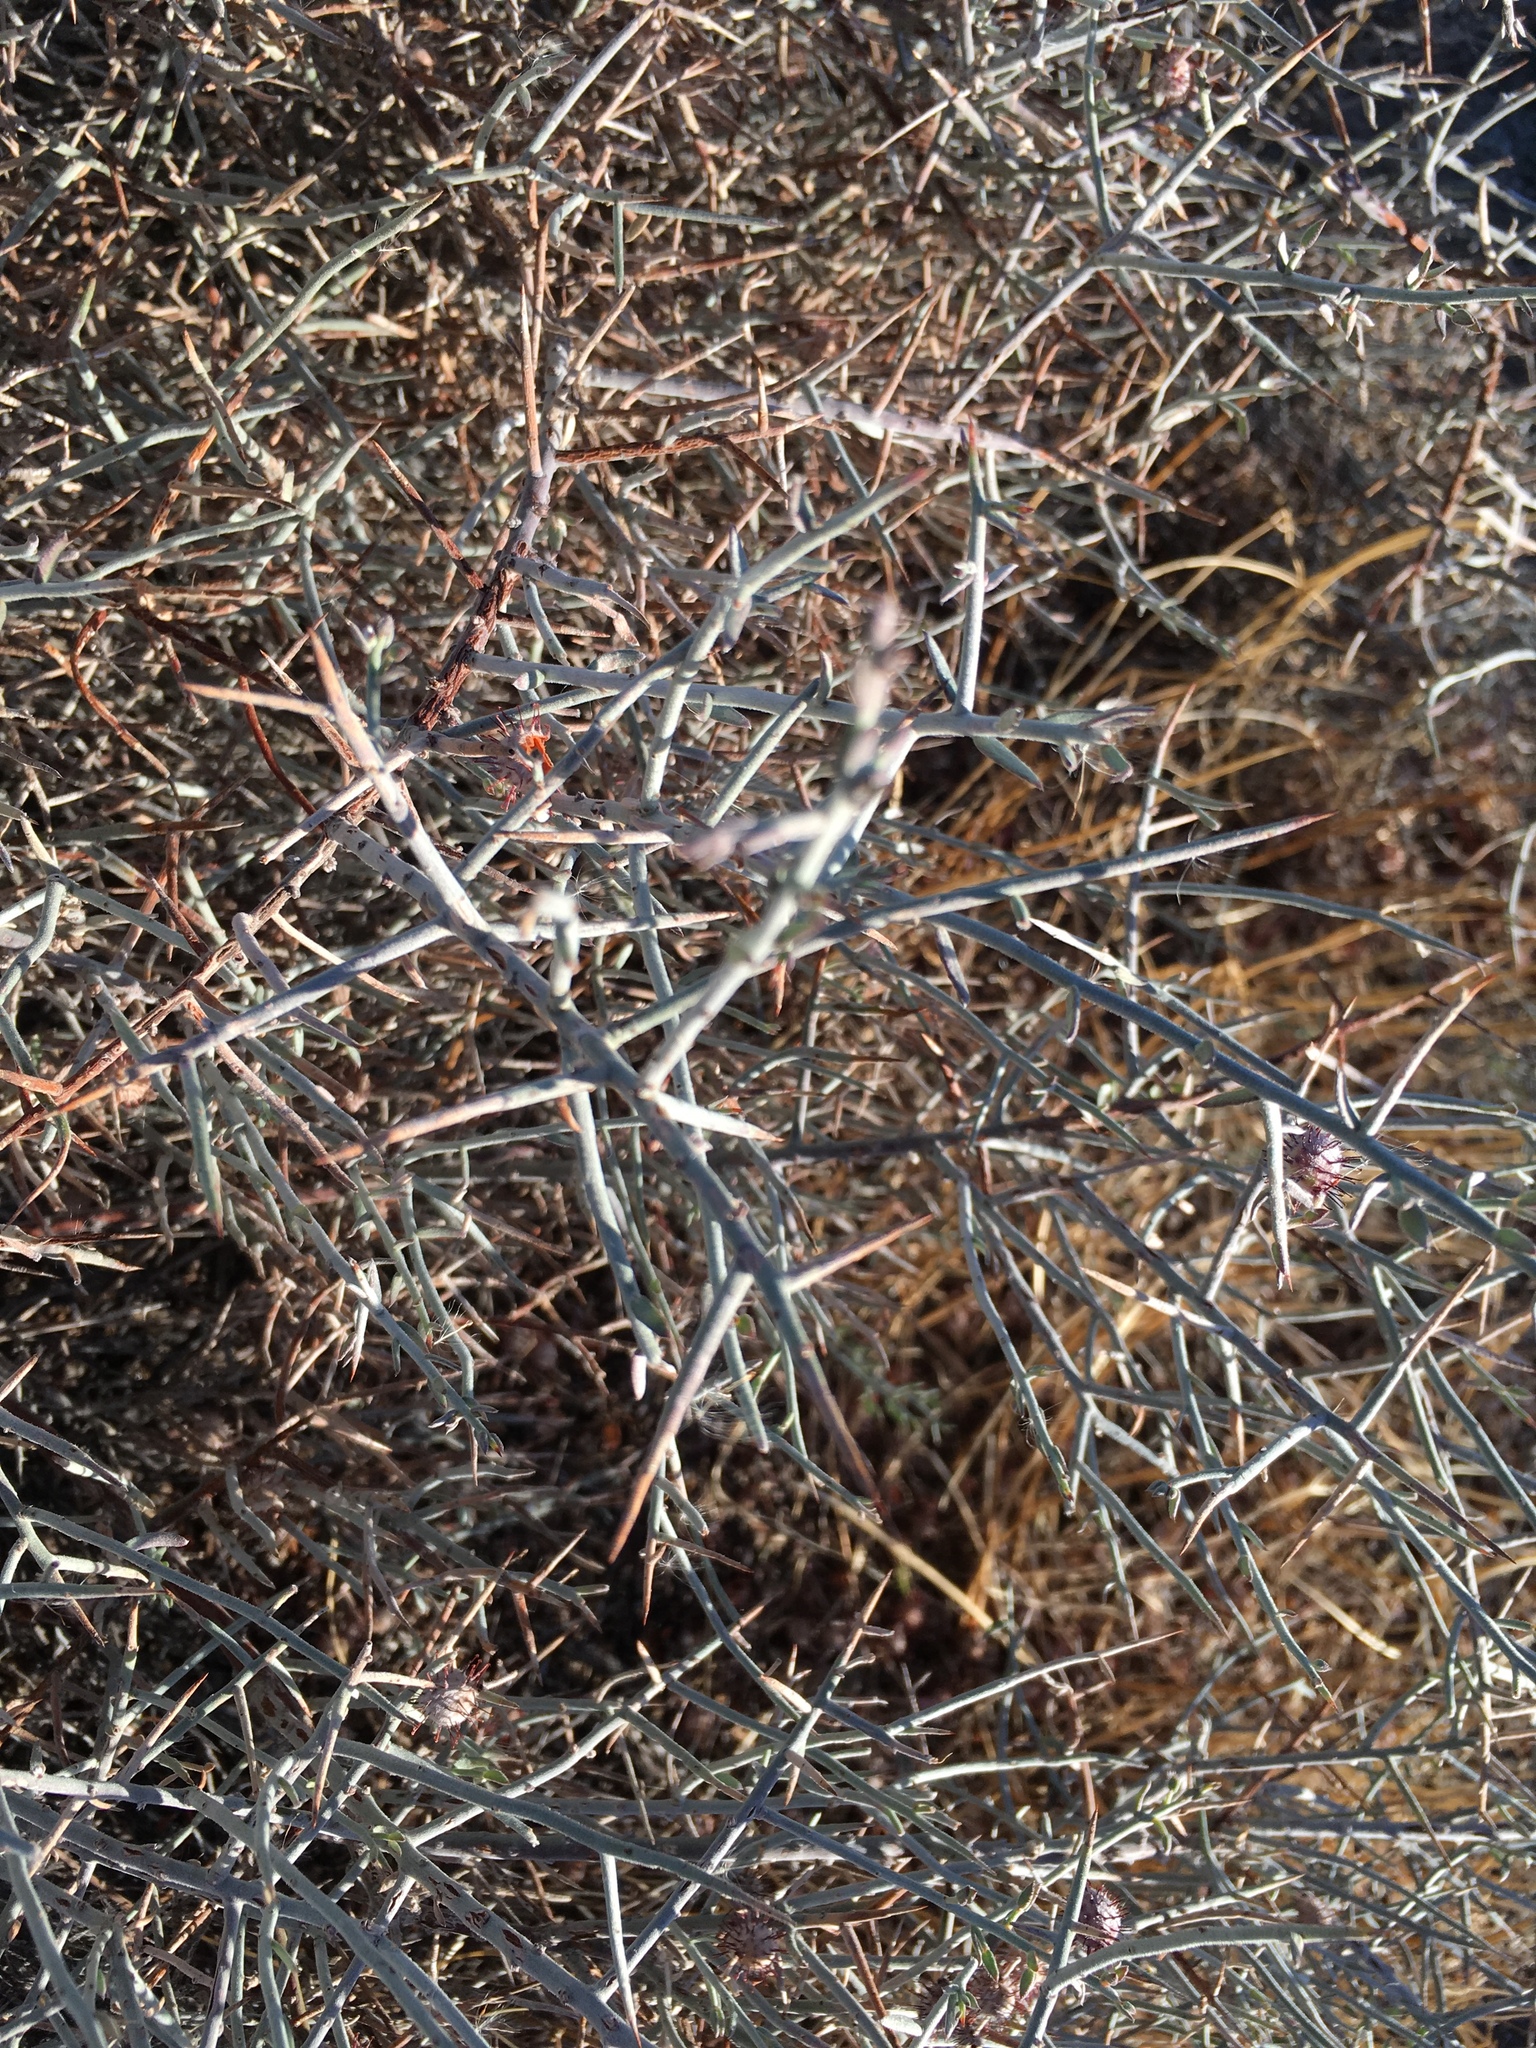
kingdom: Plantae
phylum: Tracheophyta
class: Magnoliopsida
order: Zygophyllales
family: Krameriaceae
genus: Krameria
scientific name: Krameria bicolor
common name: White ratany
